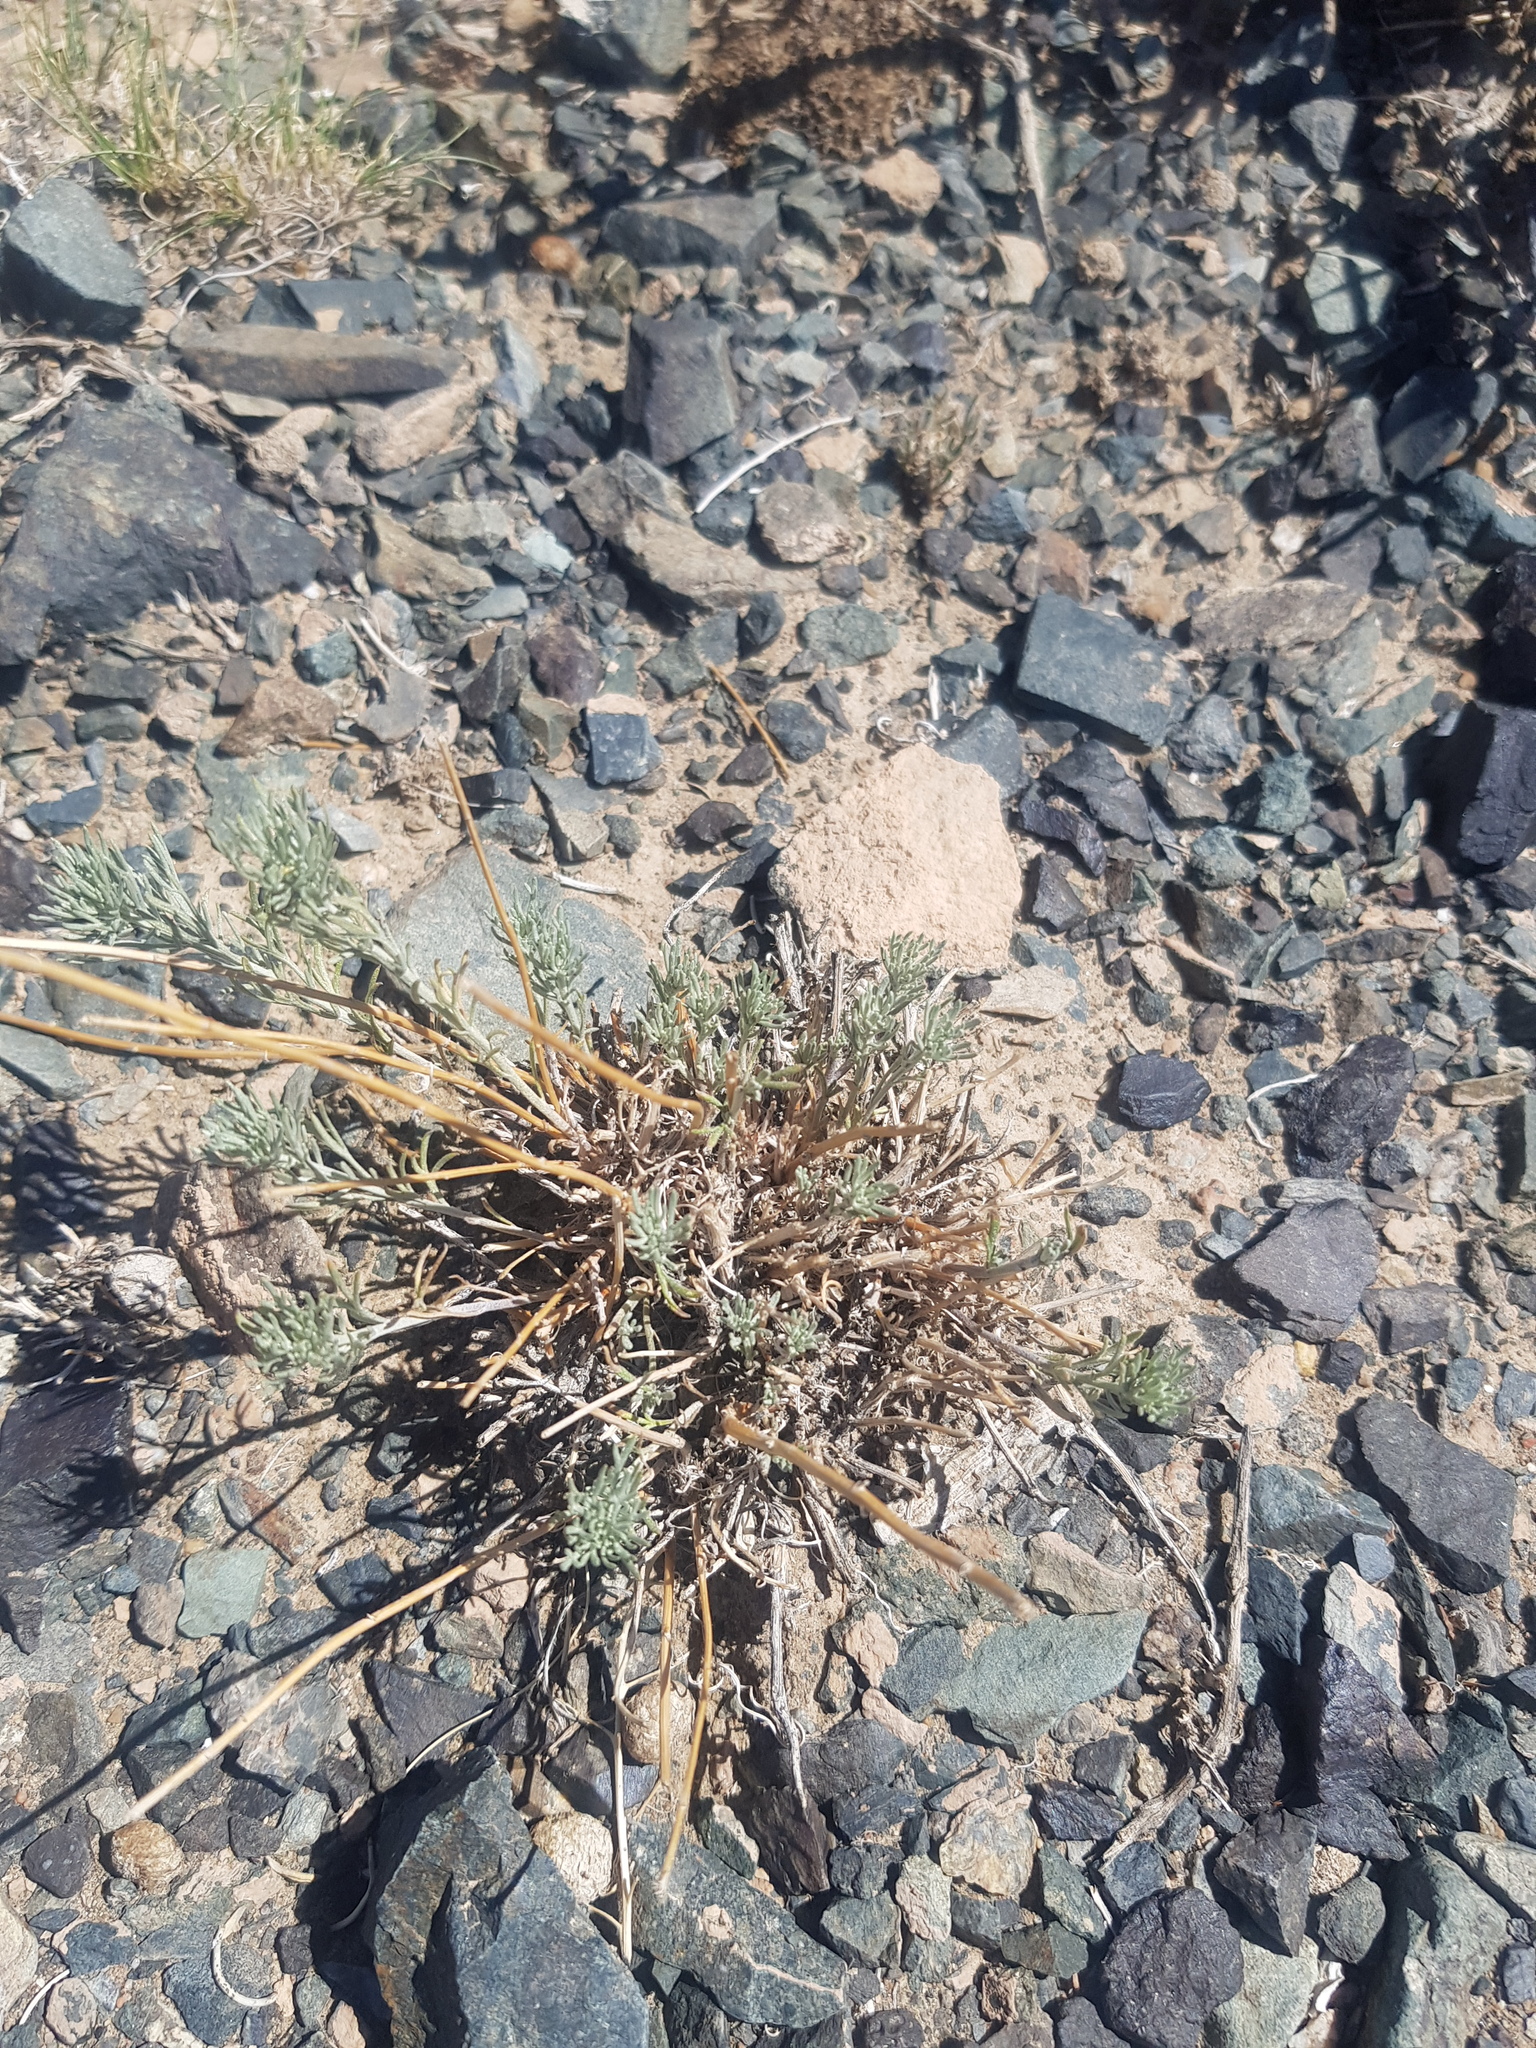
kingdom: Plantae
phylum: Tracheophyta
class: Magnoliopsida
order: Asterales
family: Asteraceae
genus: Ajania
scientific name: Ajania fruticulosa
